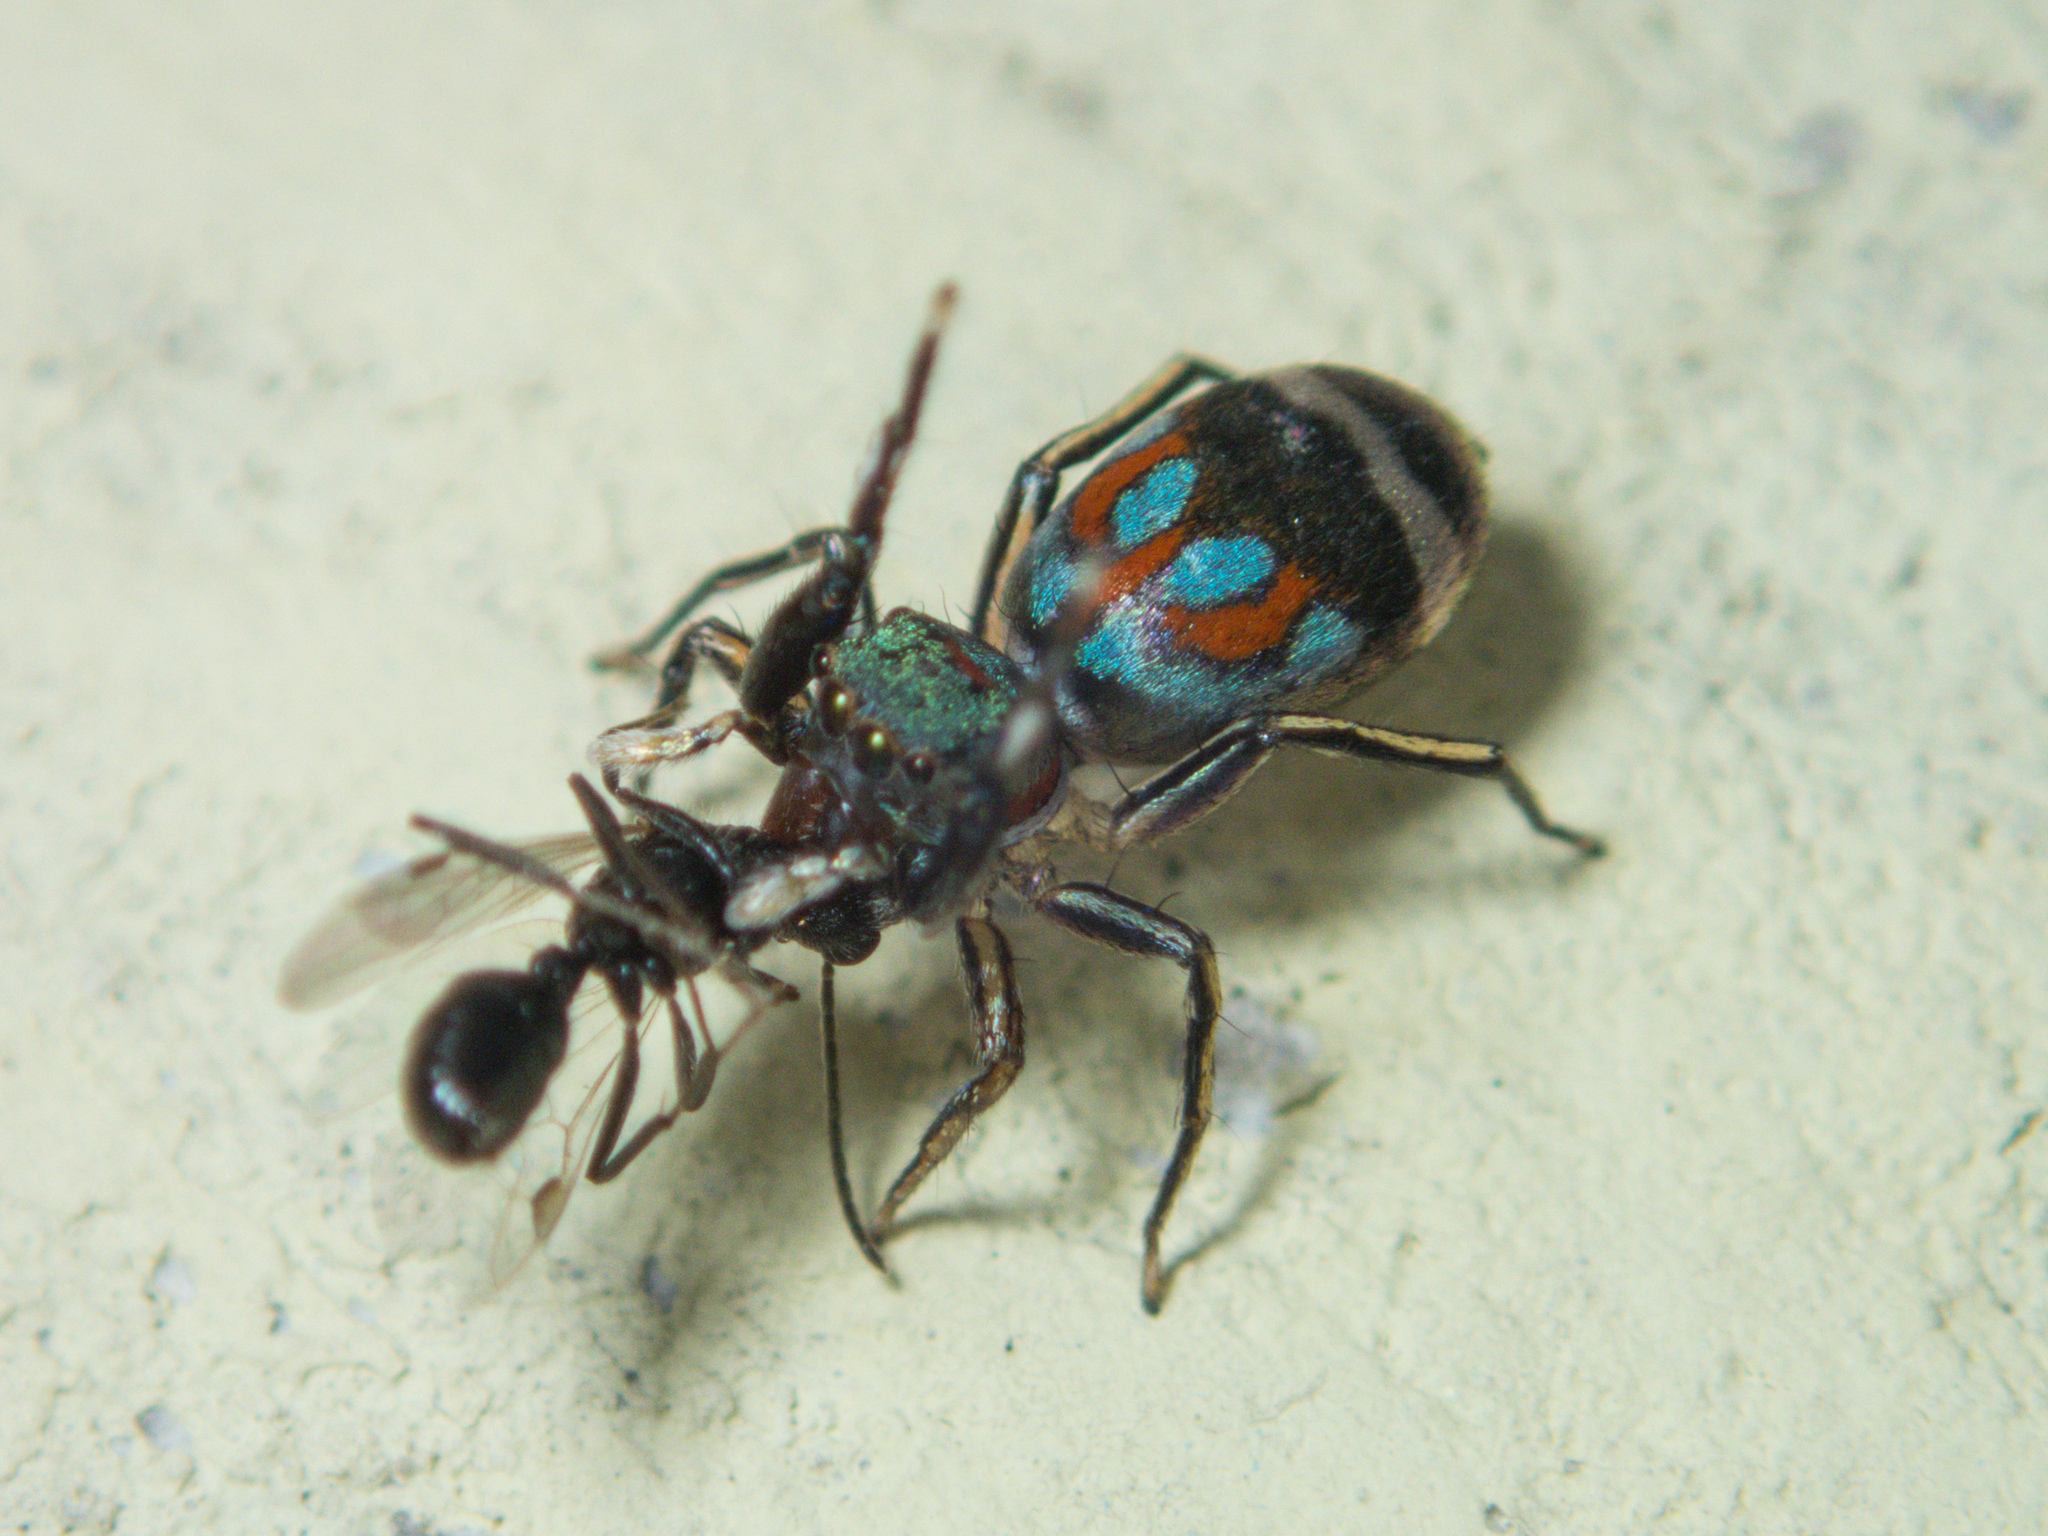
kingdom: Animalia
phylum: Arthropoda
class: Arachnida
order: Araneae
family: Salticidae
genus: Siler
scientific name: Siler semiglaucus
